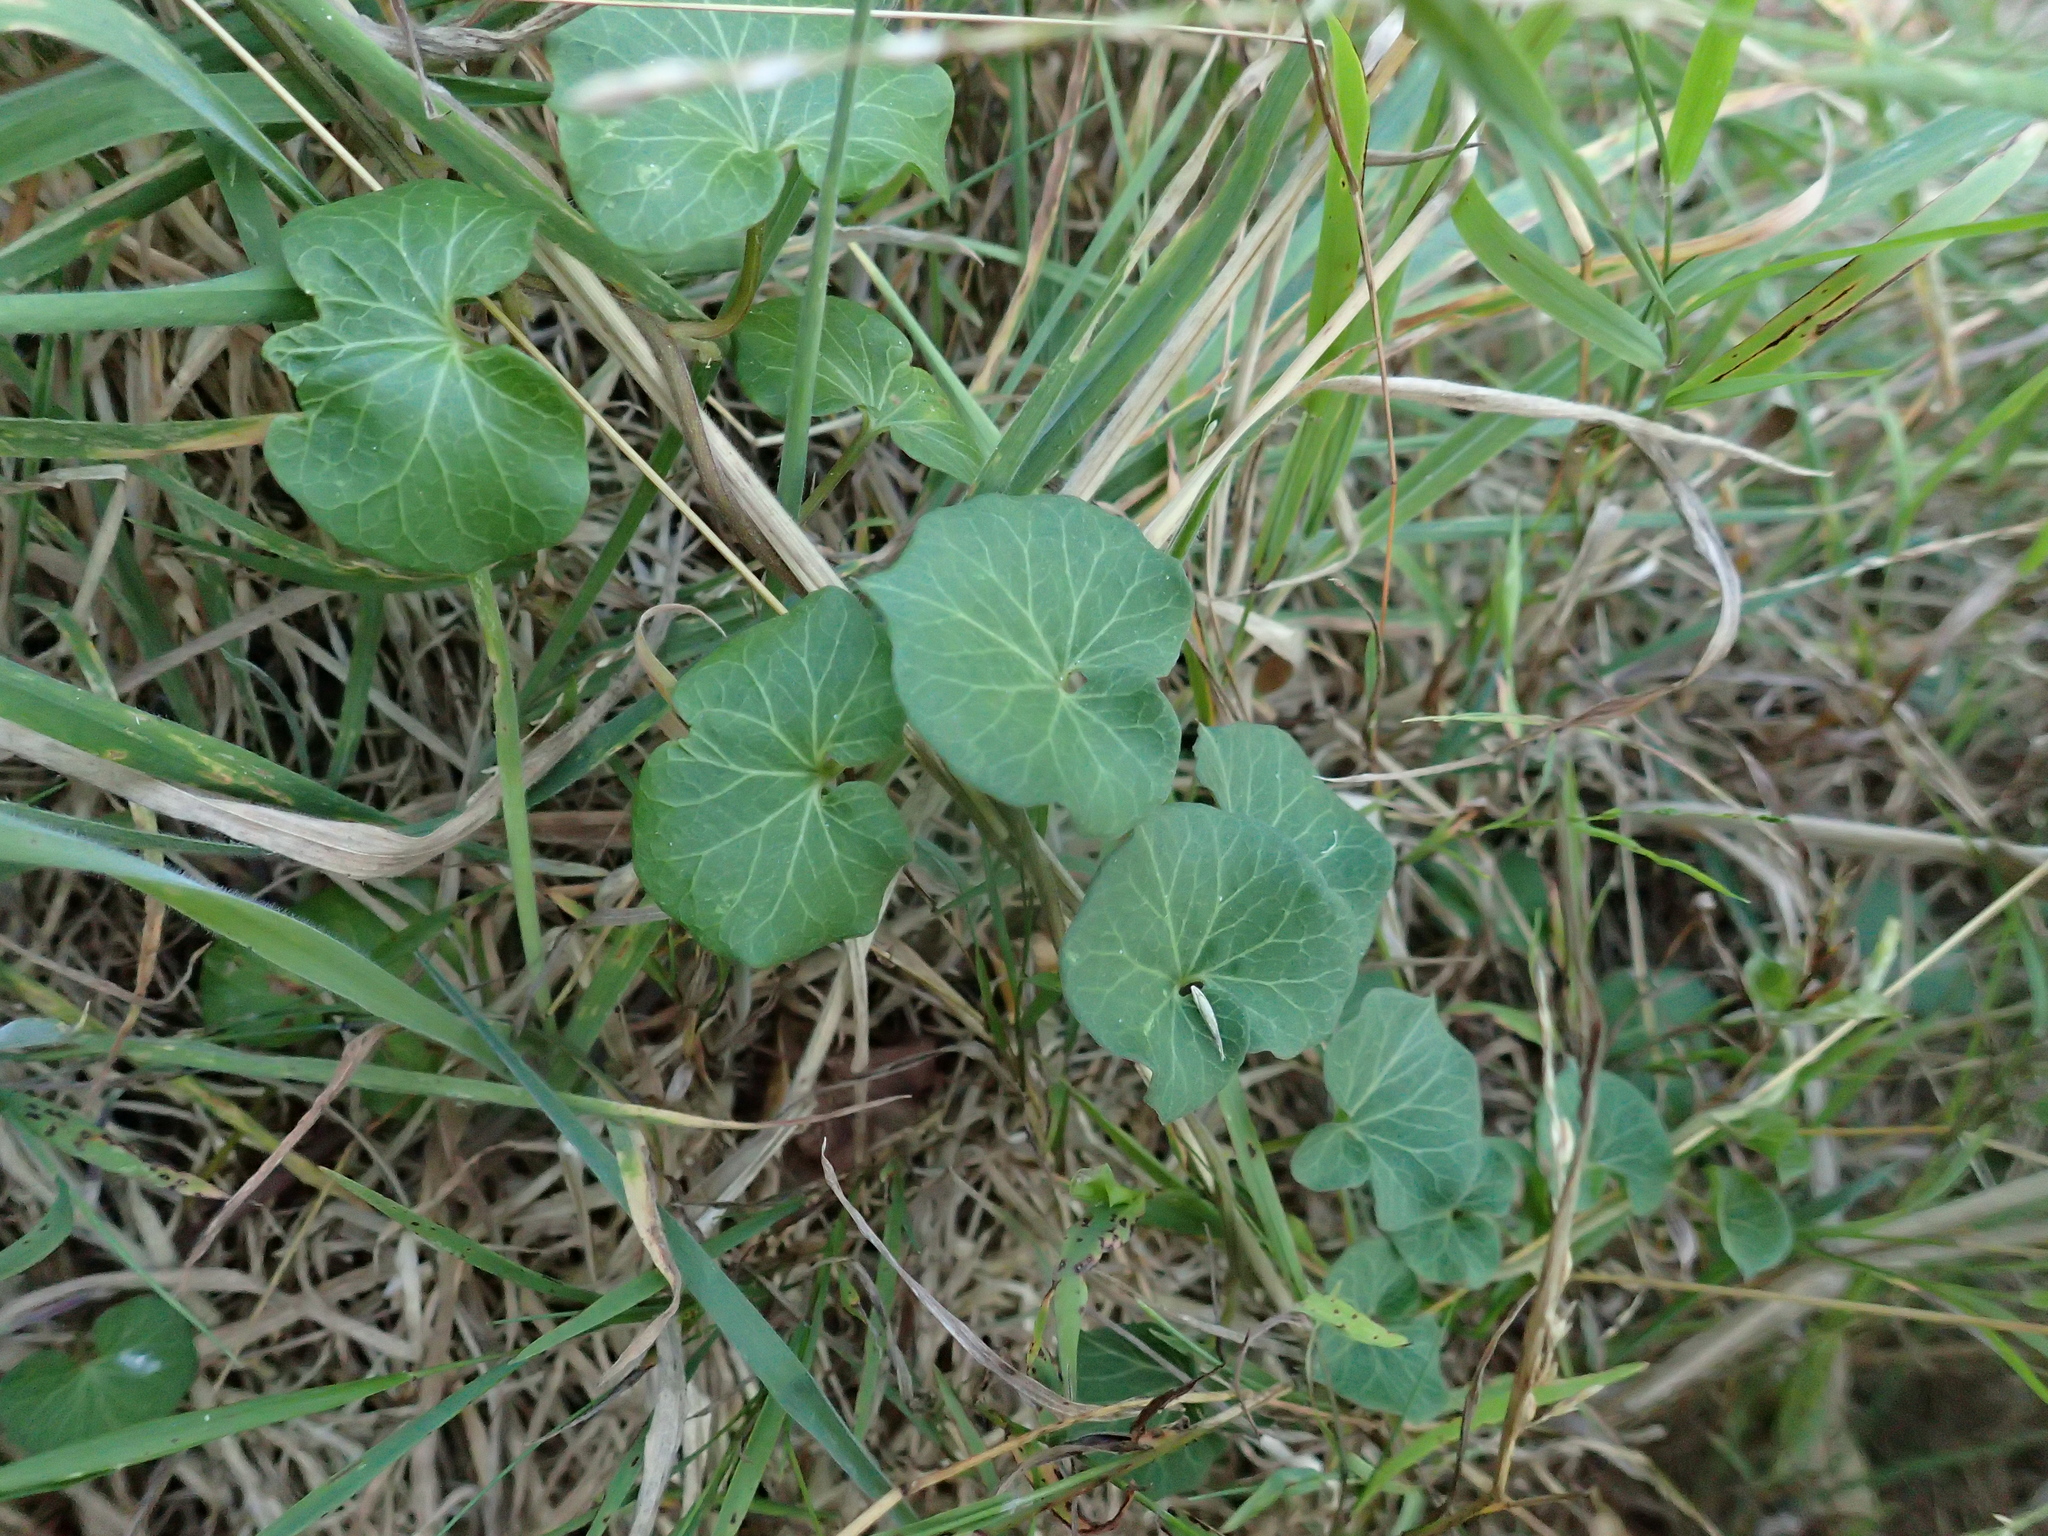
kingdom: Plantae
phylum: Tracheophyta
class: Magnoliopsida
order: Solanales
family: Convolvulaceae
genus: Calystegia
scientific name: Calystegia soldanella
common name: Sea bindweed
